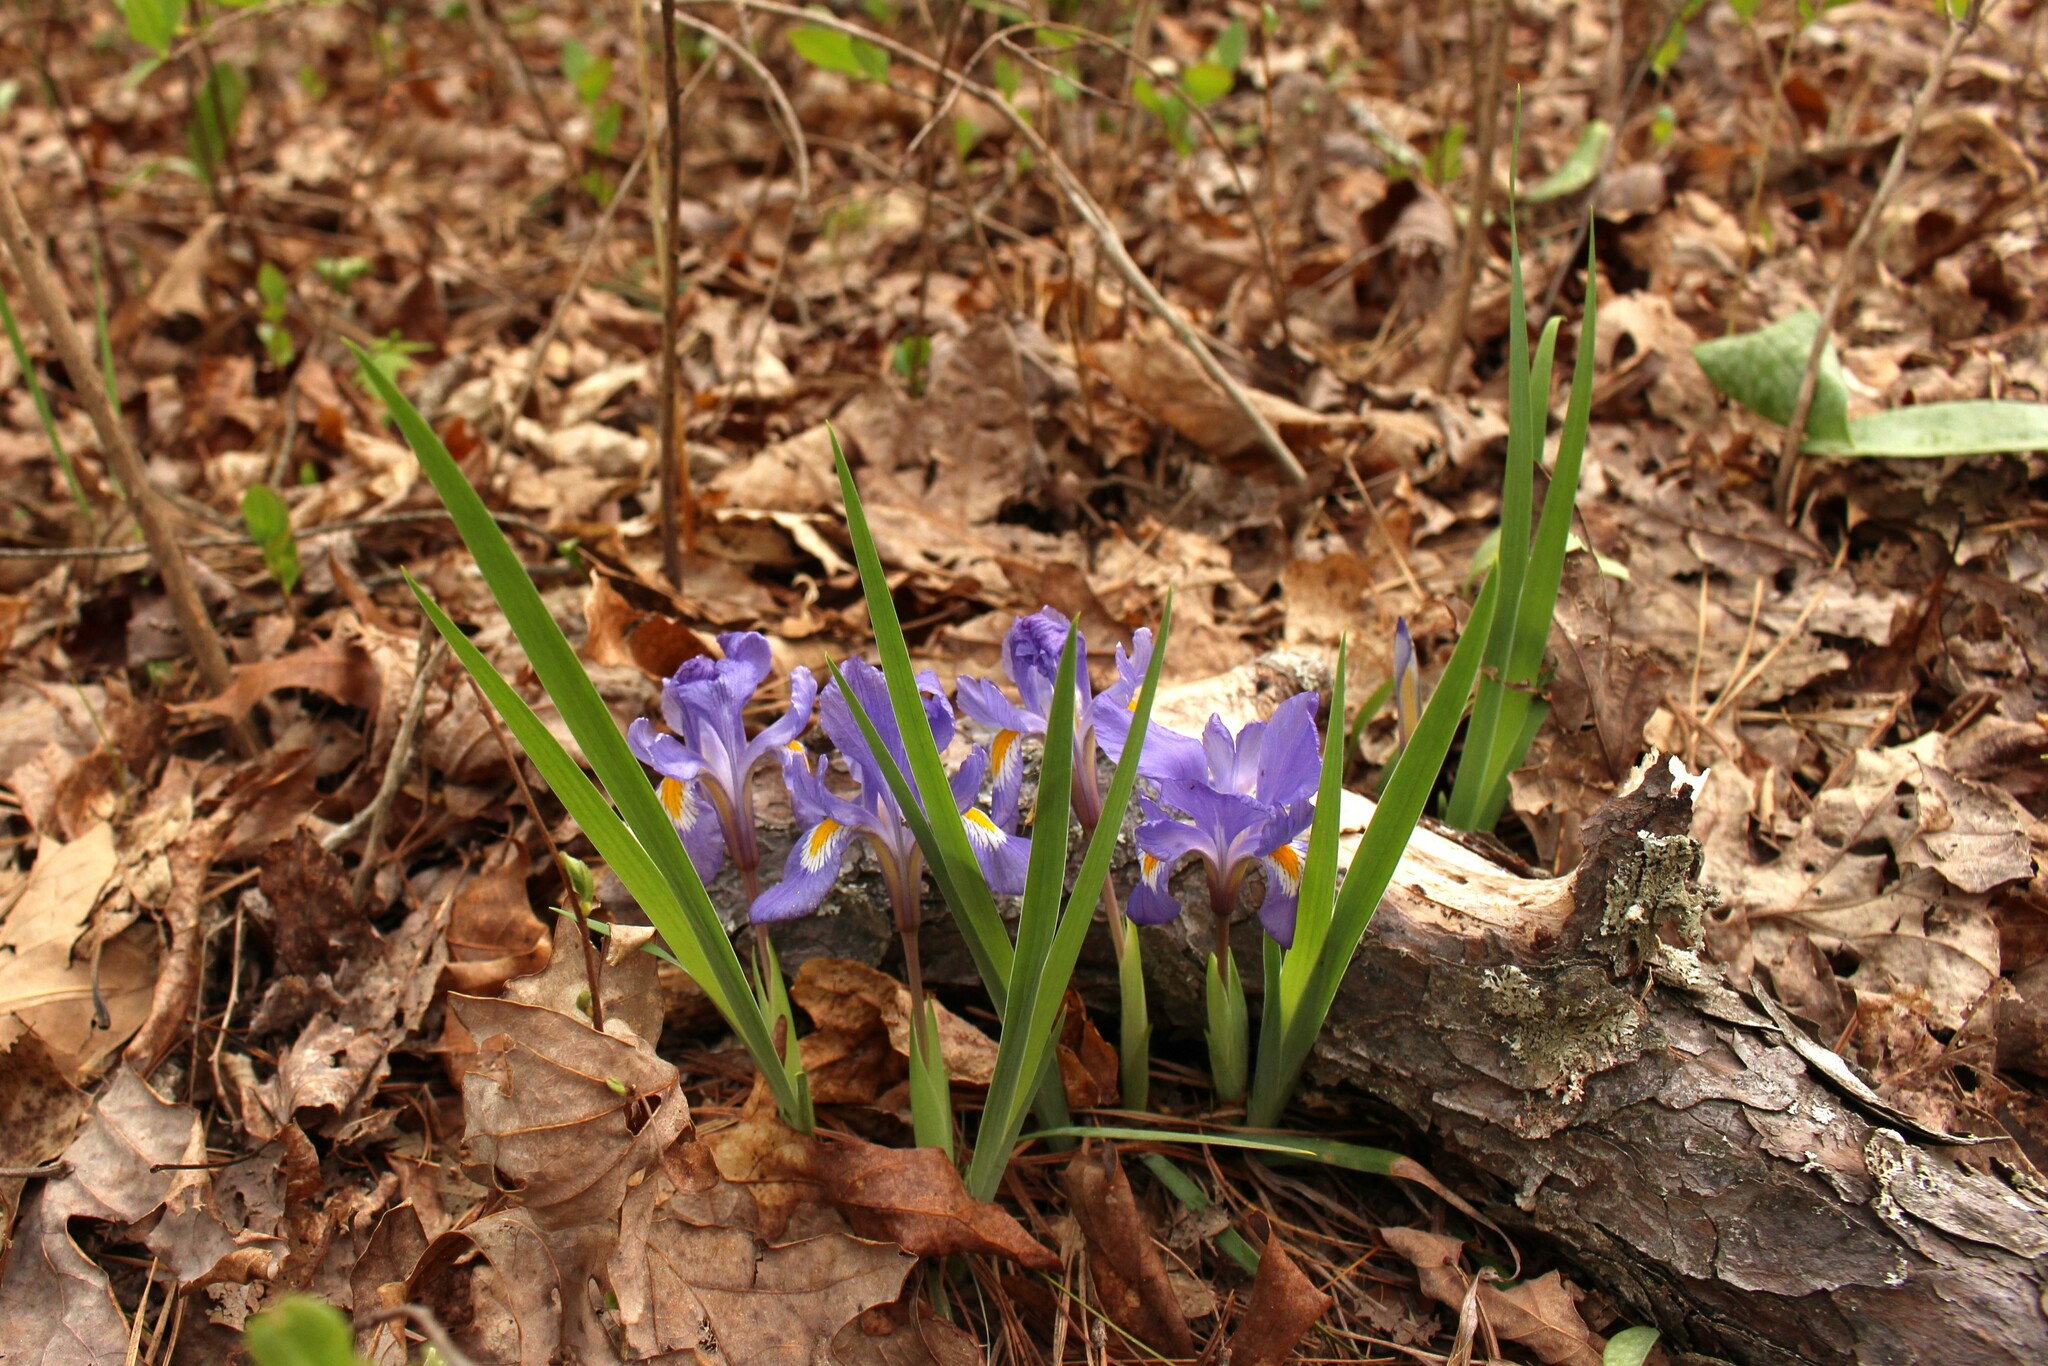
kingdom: Plantae
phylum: Tracheophyta
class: Liliopsida
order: Asparagales
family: Iridaceae
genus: Iris
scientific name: Iris verna
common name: Dwarf iris
